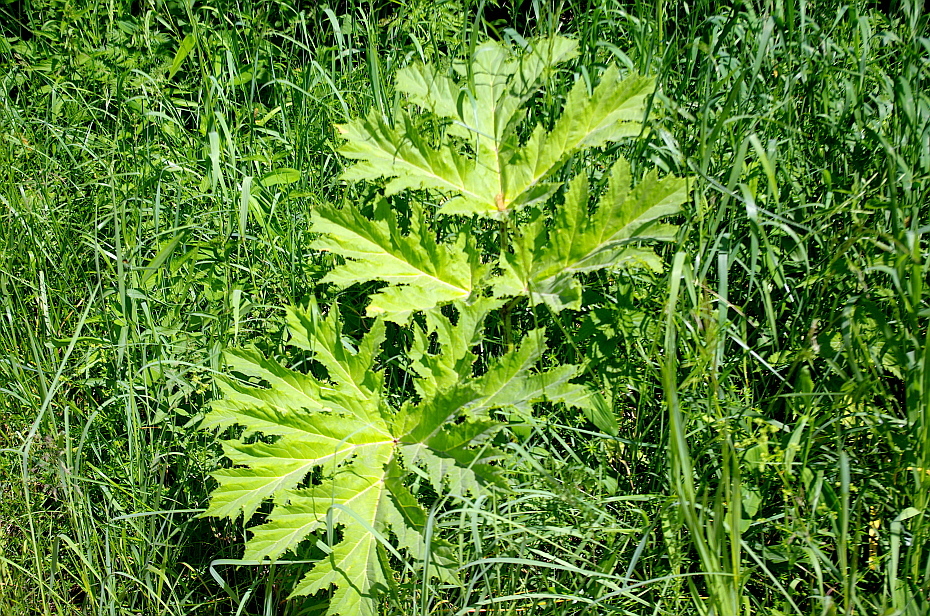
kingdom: Plantae
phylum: Tracheophyta
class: Magnoliopsida
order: Apiales
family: Apiaceae
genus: Heracleum
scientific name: Heracleum sosnowskyi
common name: Sosnowsky's hogweed
